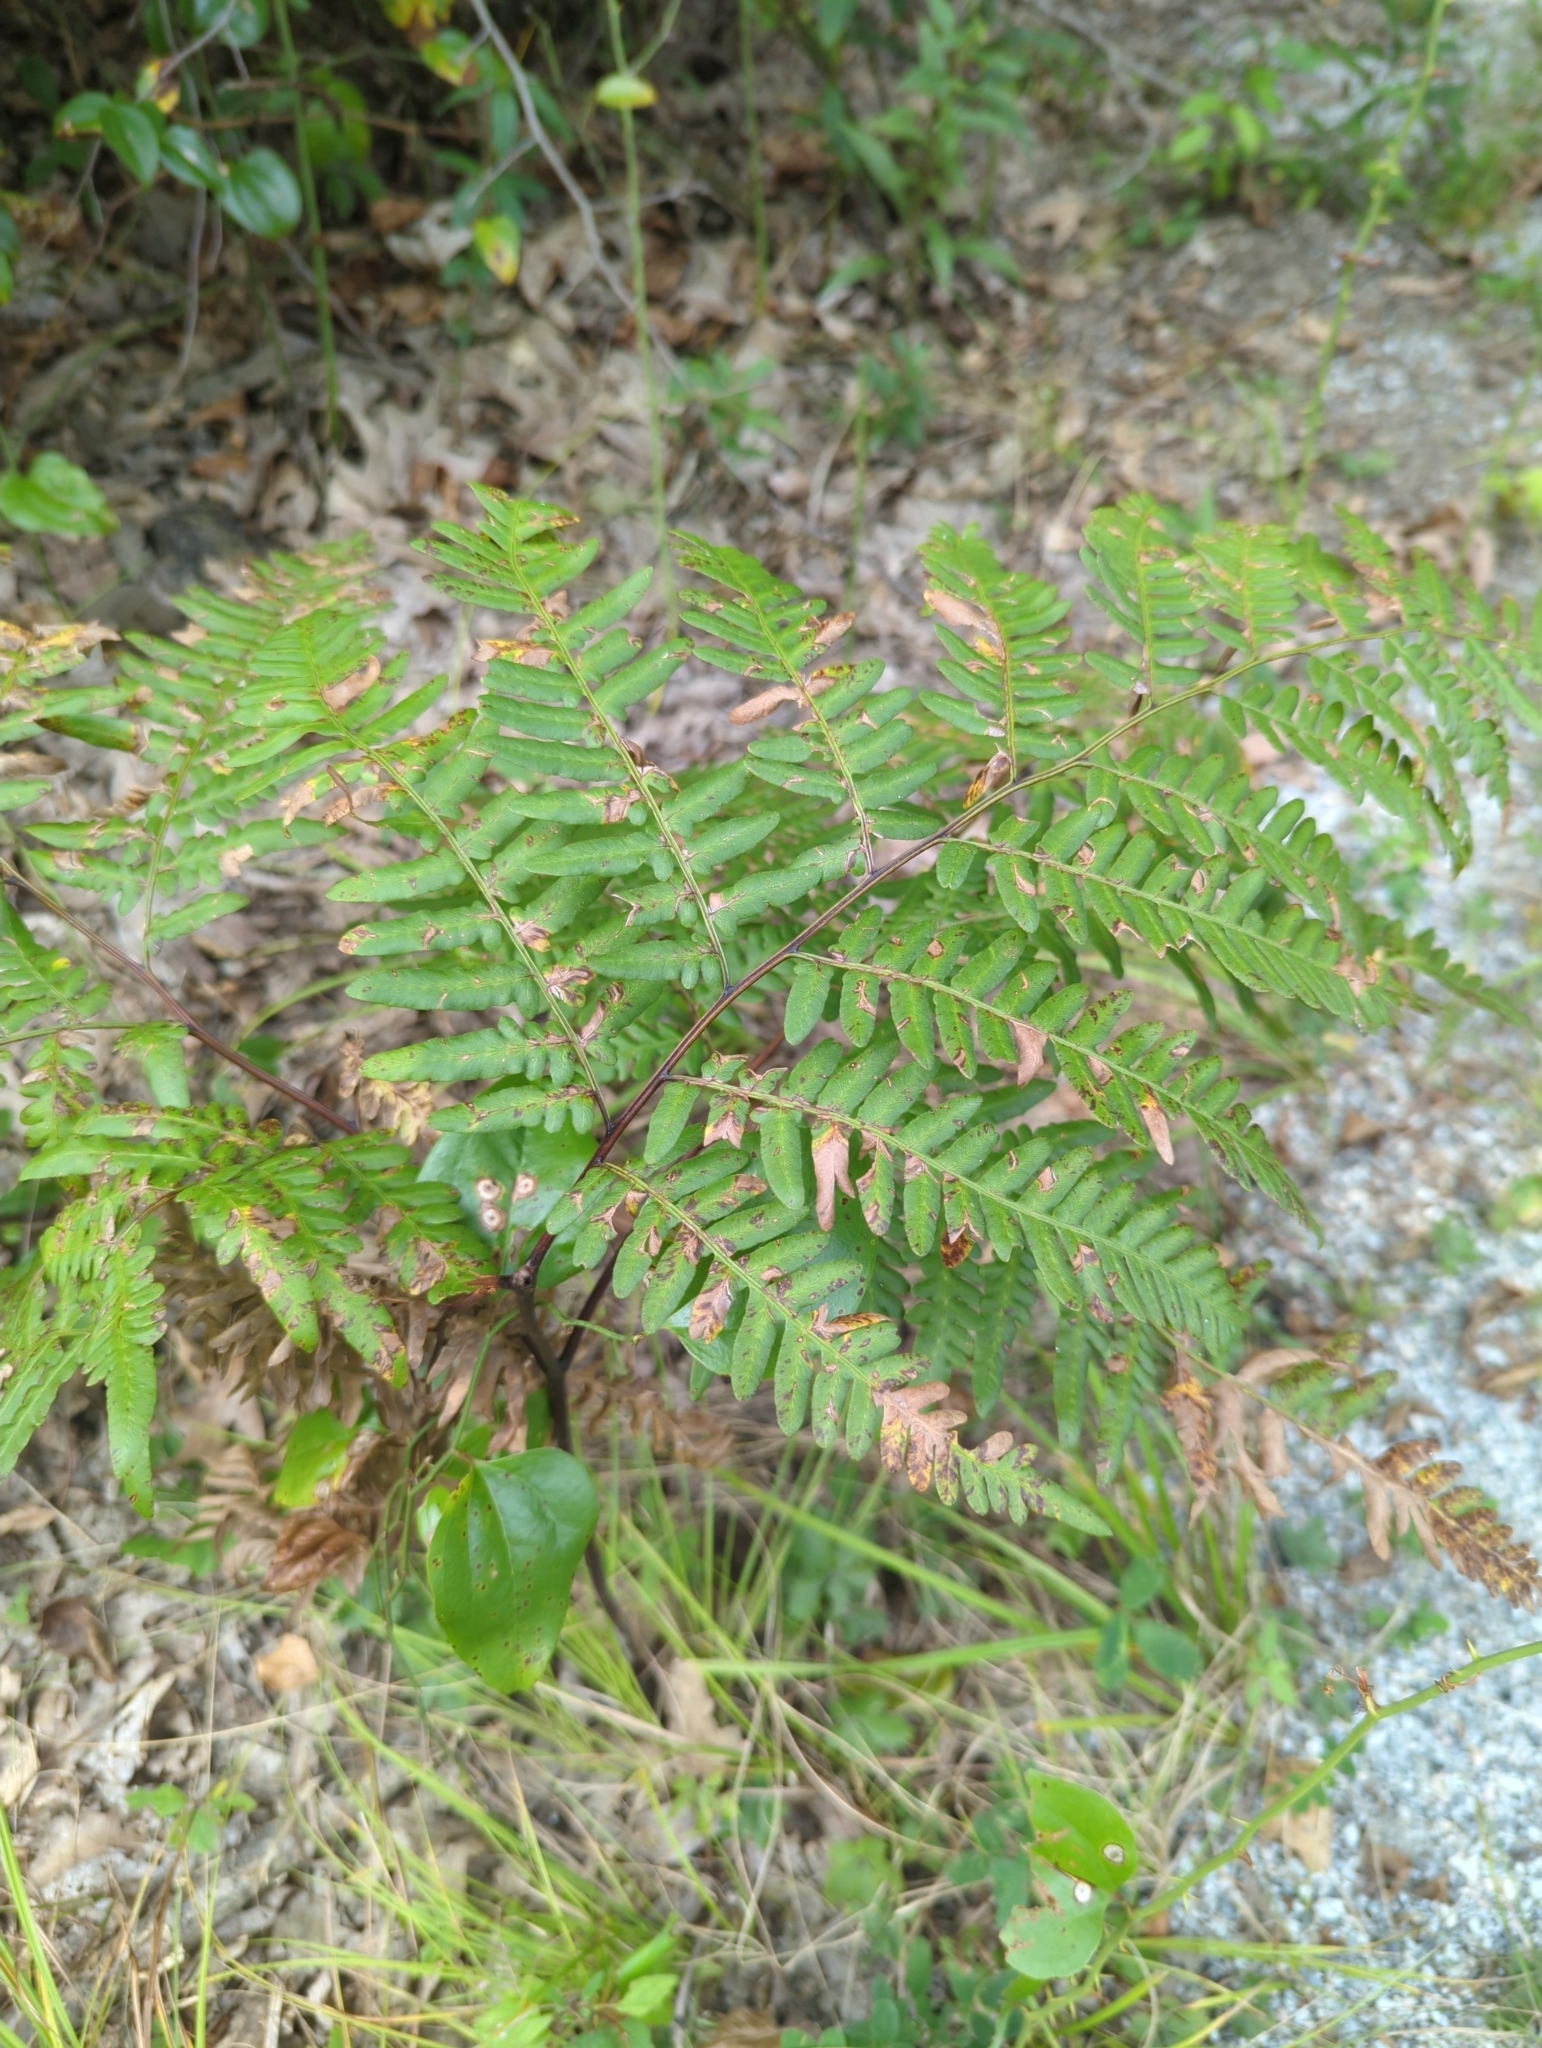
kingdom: Plantae
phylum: Tracheophyta
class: Polypodiopsida
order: Polypodiales
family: Dennstaedtiaceae
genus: Pteridium
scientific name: Pteridium aquilinum
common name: Bracken
